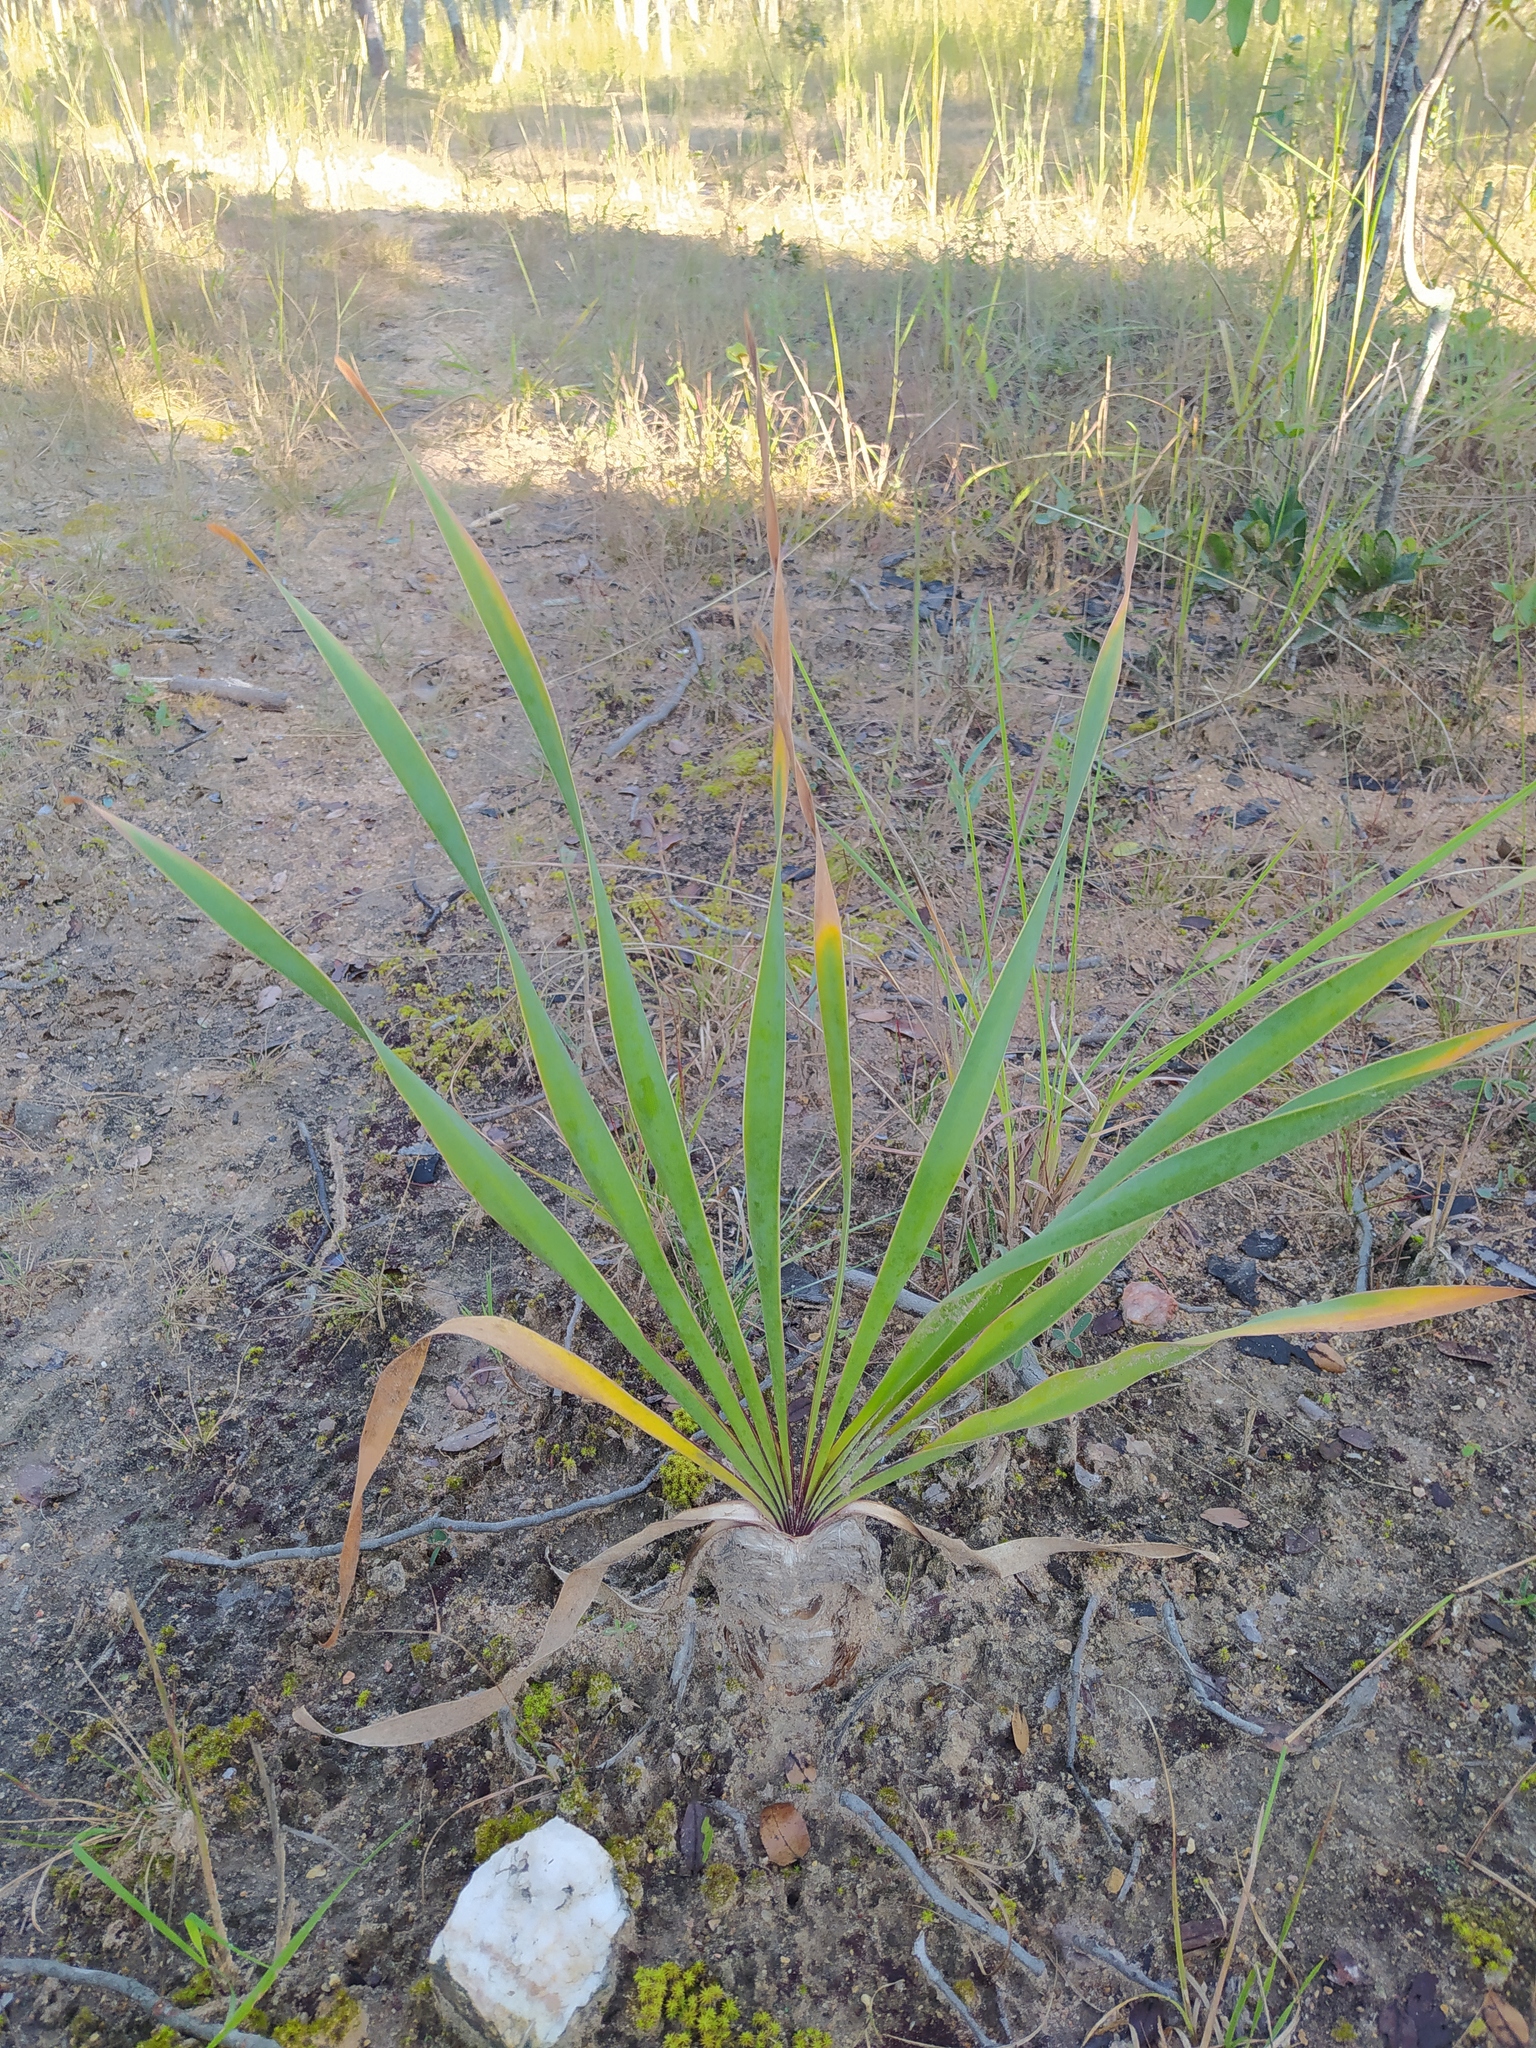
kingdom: Plantae
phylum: Tracheophyta
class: Liliopsida
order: Asparagales
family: Amaryllidaceae
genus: Boophone
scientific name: Boophone disticha
